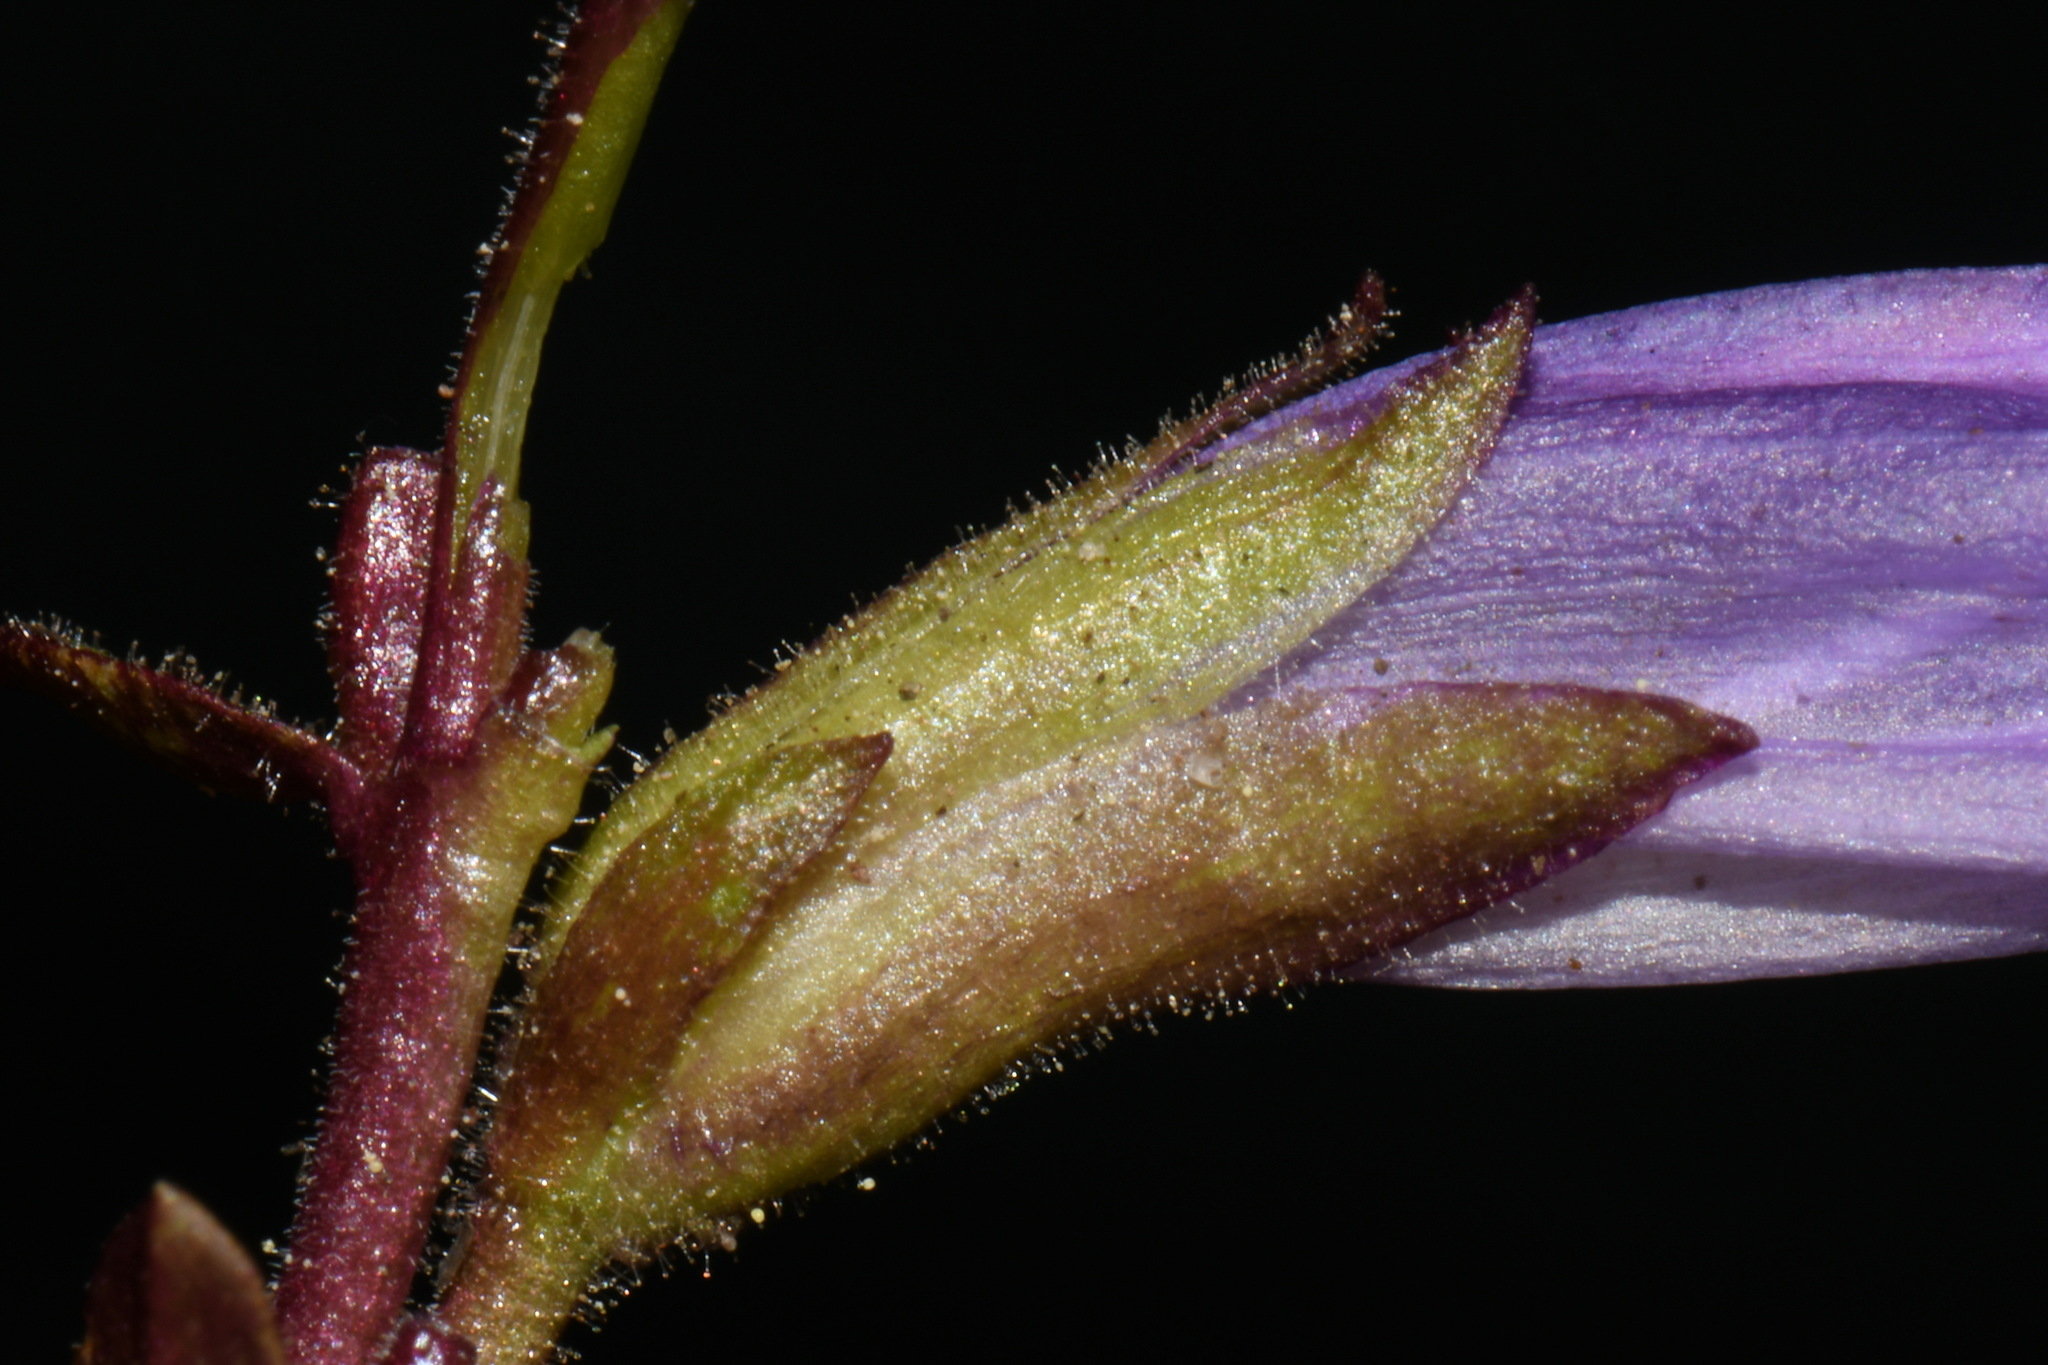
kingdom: Plantae
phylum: Tracheophyta
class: Magnoliopsida
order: Lamiales
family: Plantaginaceae
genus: Penstemon
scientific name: Penstemon davidsonii
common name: Davidson's penstemon
